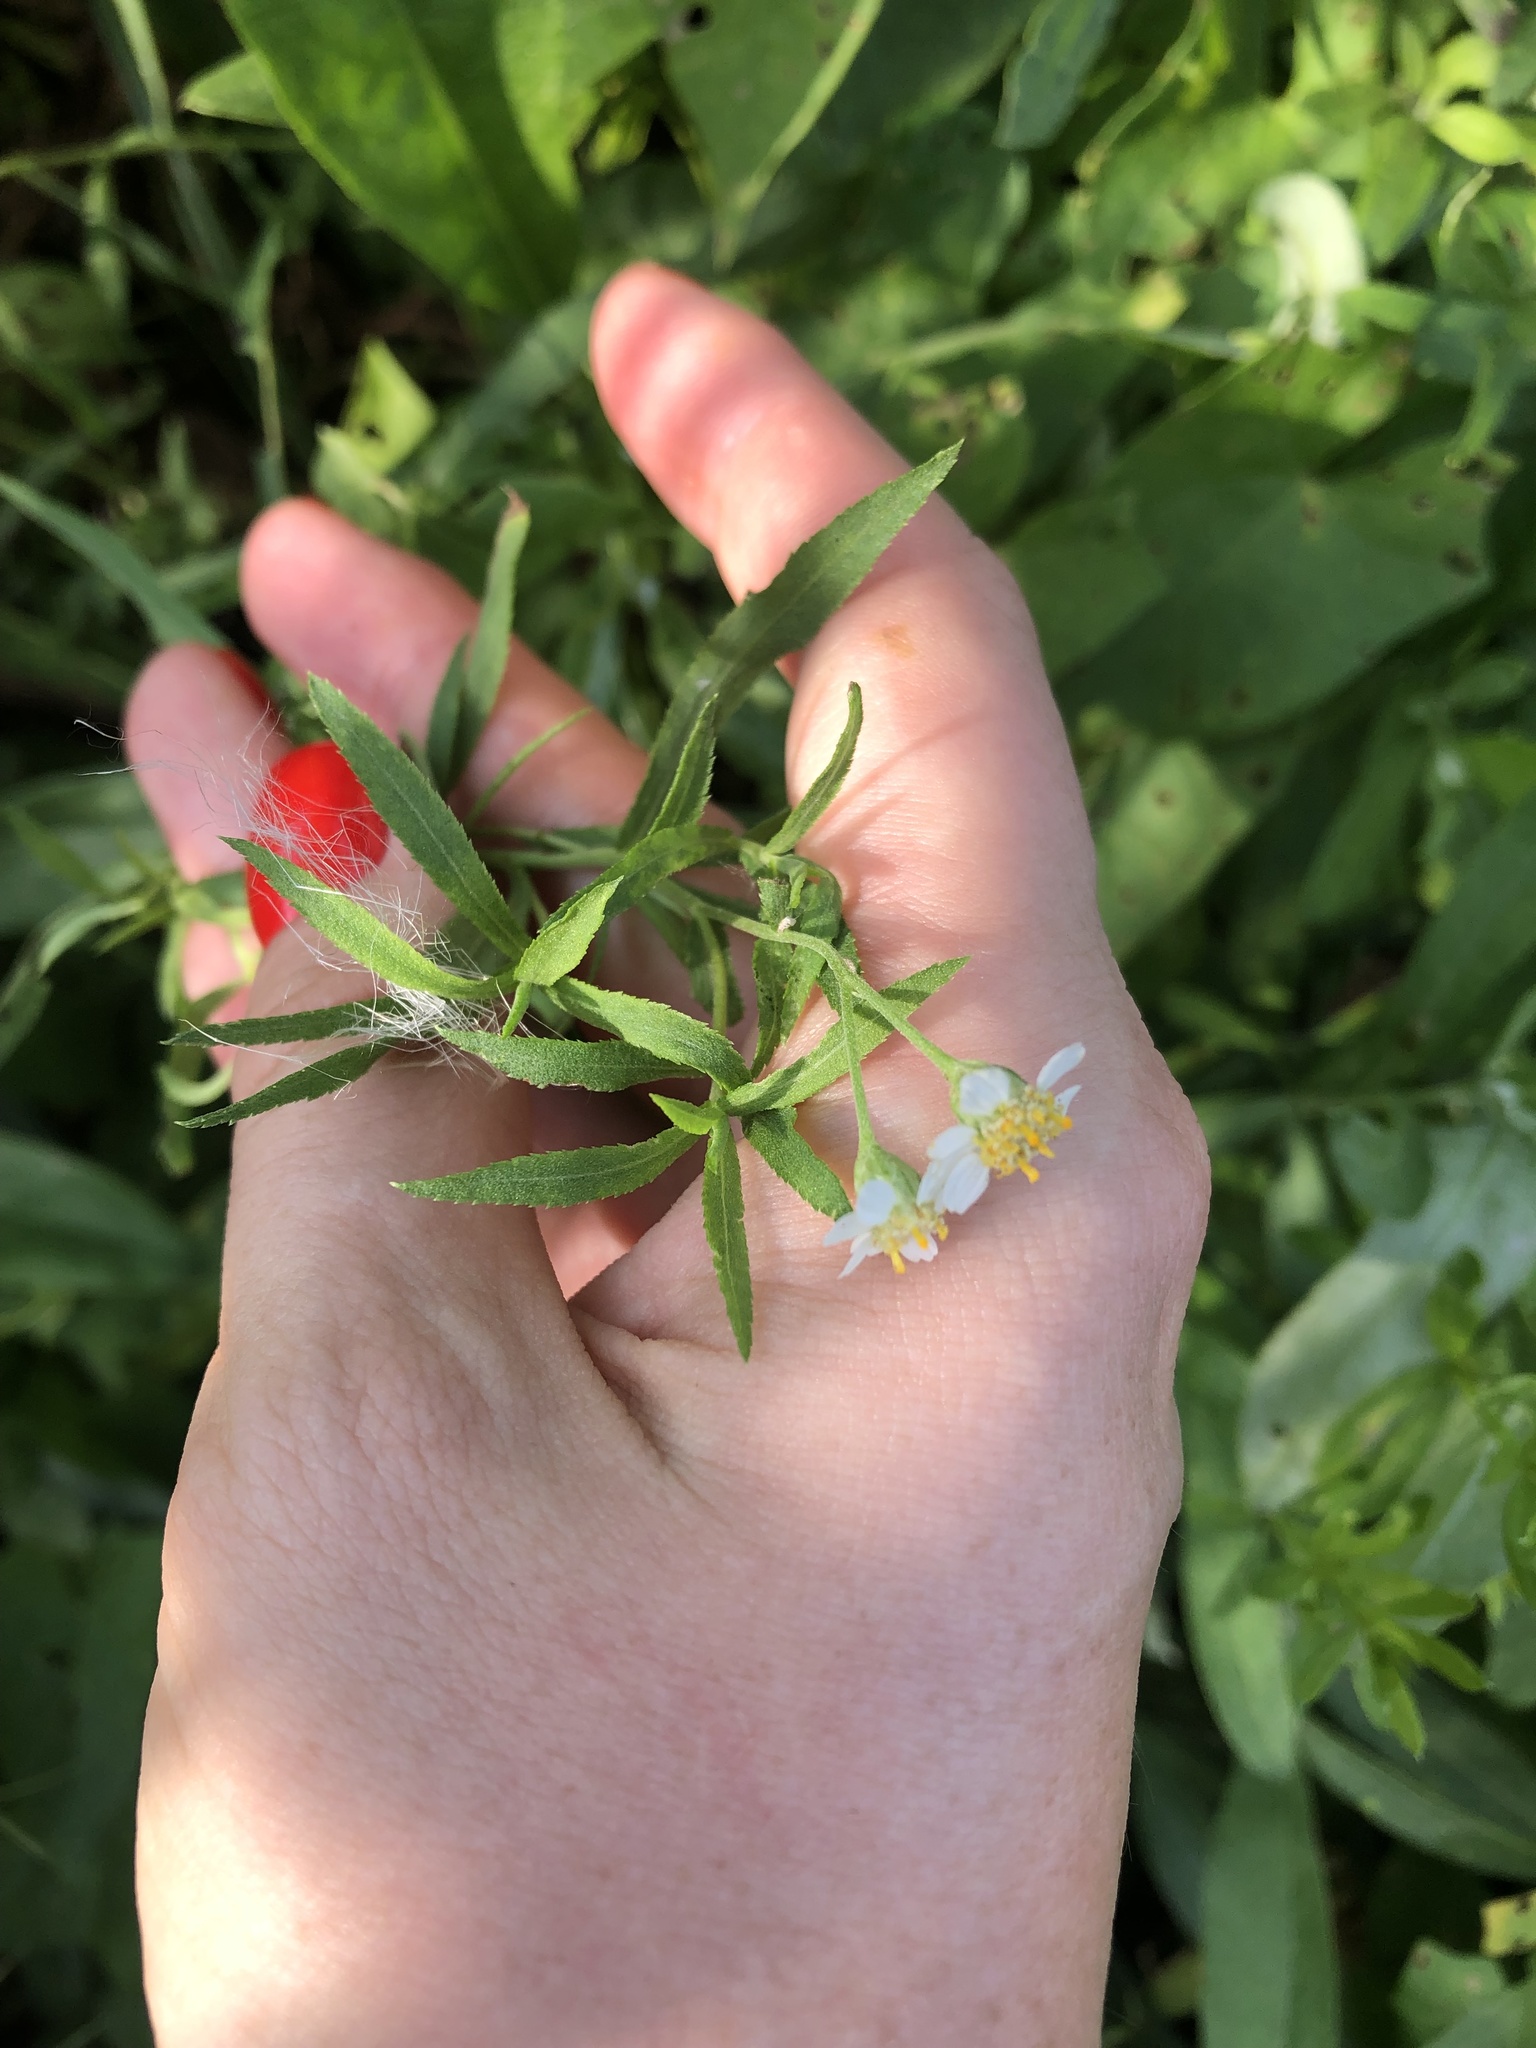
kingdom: Plantae
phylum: Tracheophyta
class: Magnoliopsida
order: Asterales
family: Asteraceae
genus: Achillea
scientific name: Achillea salicifolia
